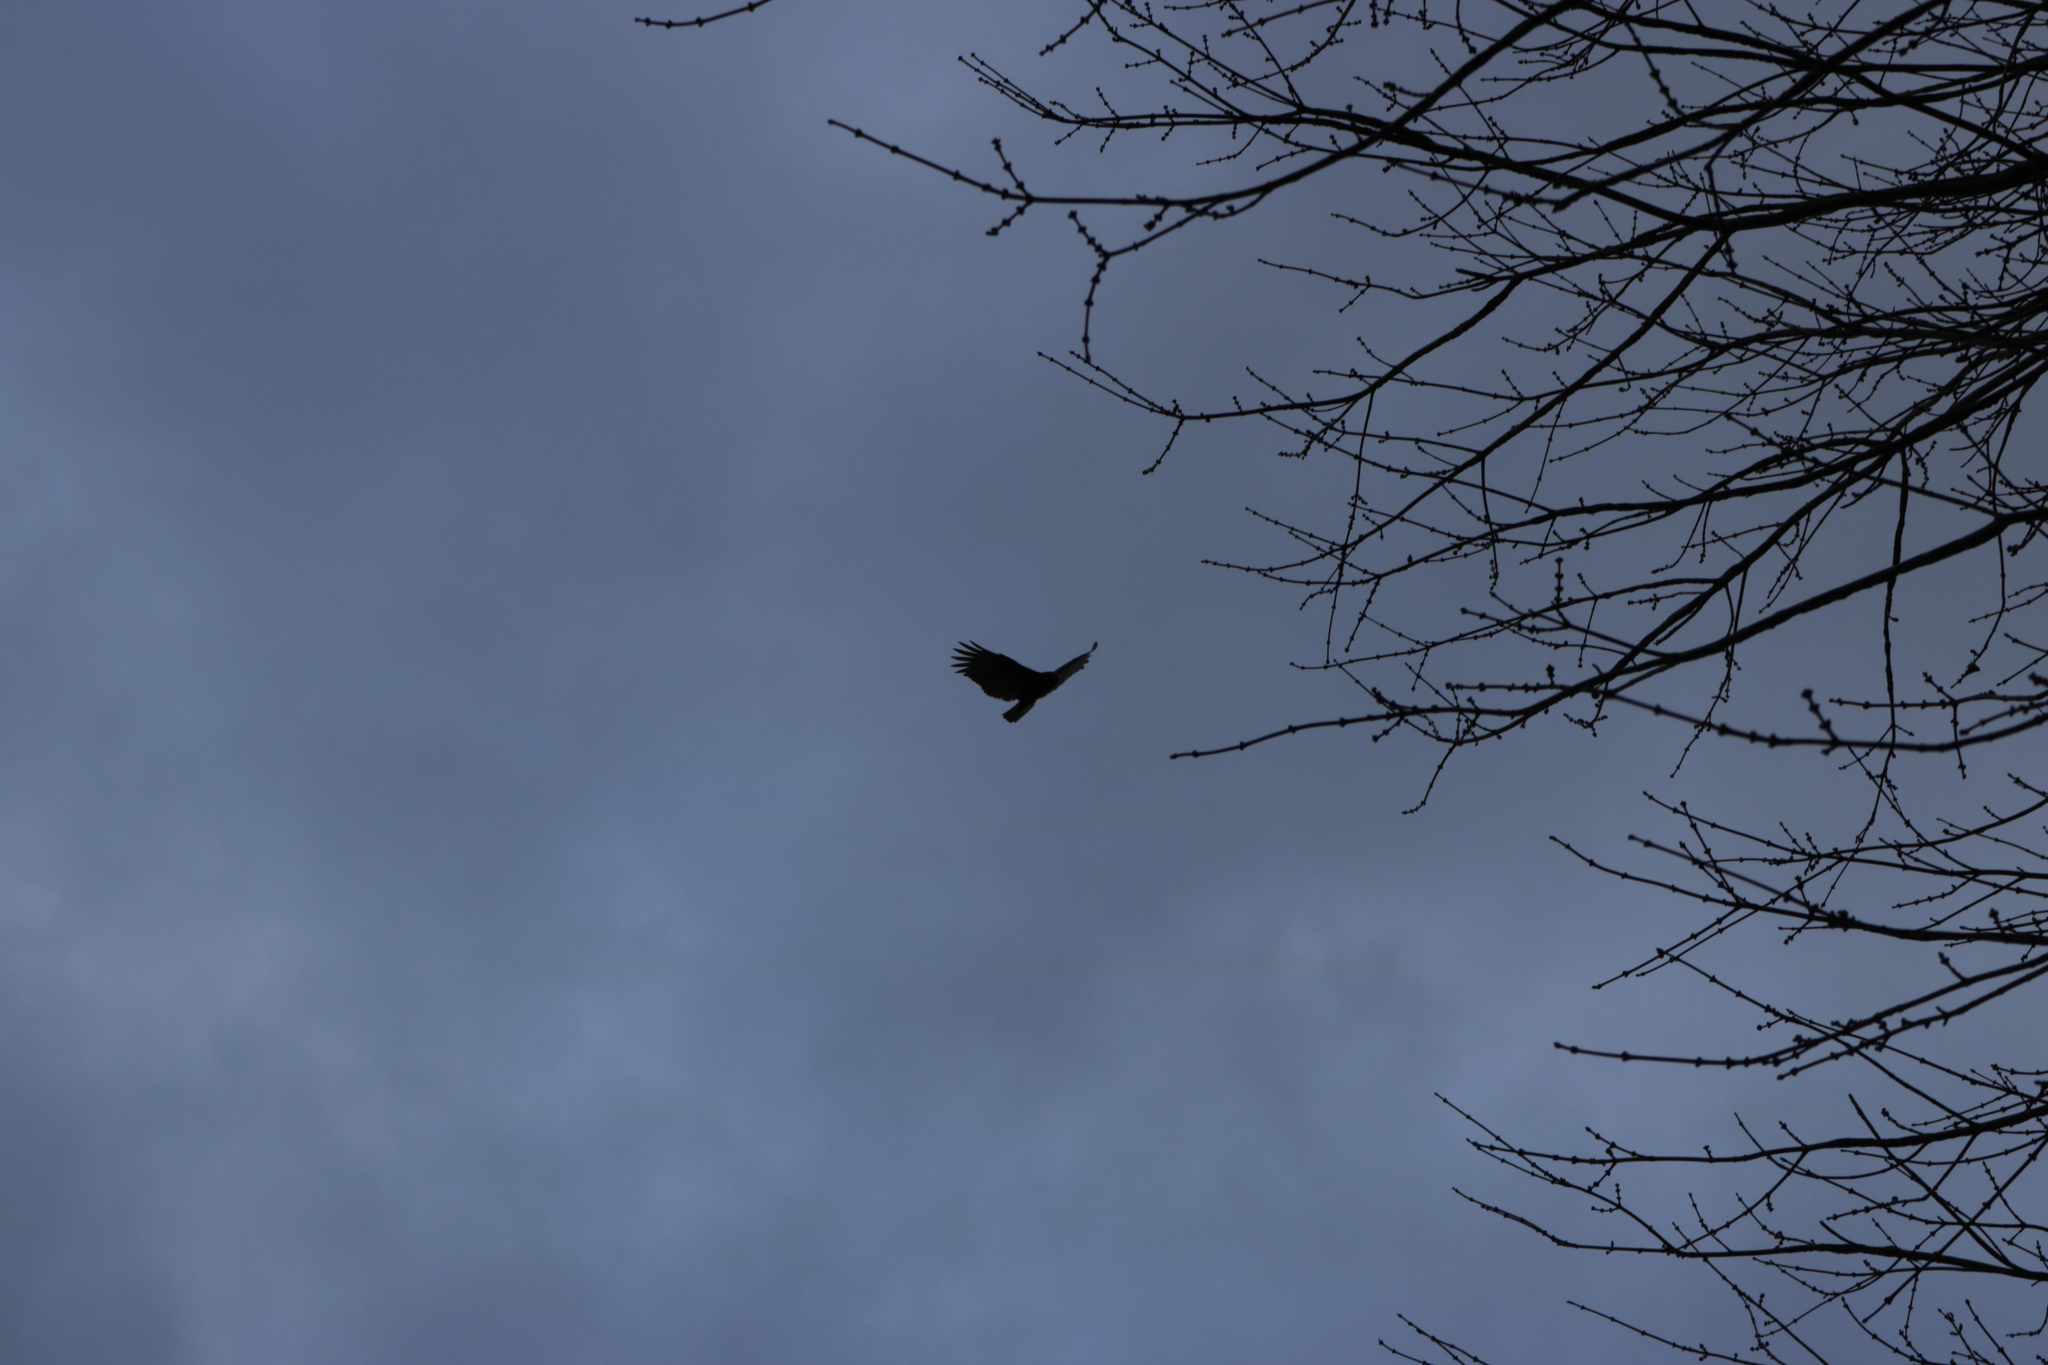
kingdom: Animalia
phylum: Chordata
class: Aves
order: Accipitriformes
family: Cathartidae
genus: Cathartes
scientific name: Cathartes aura
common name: Turkey vulture
